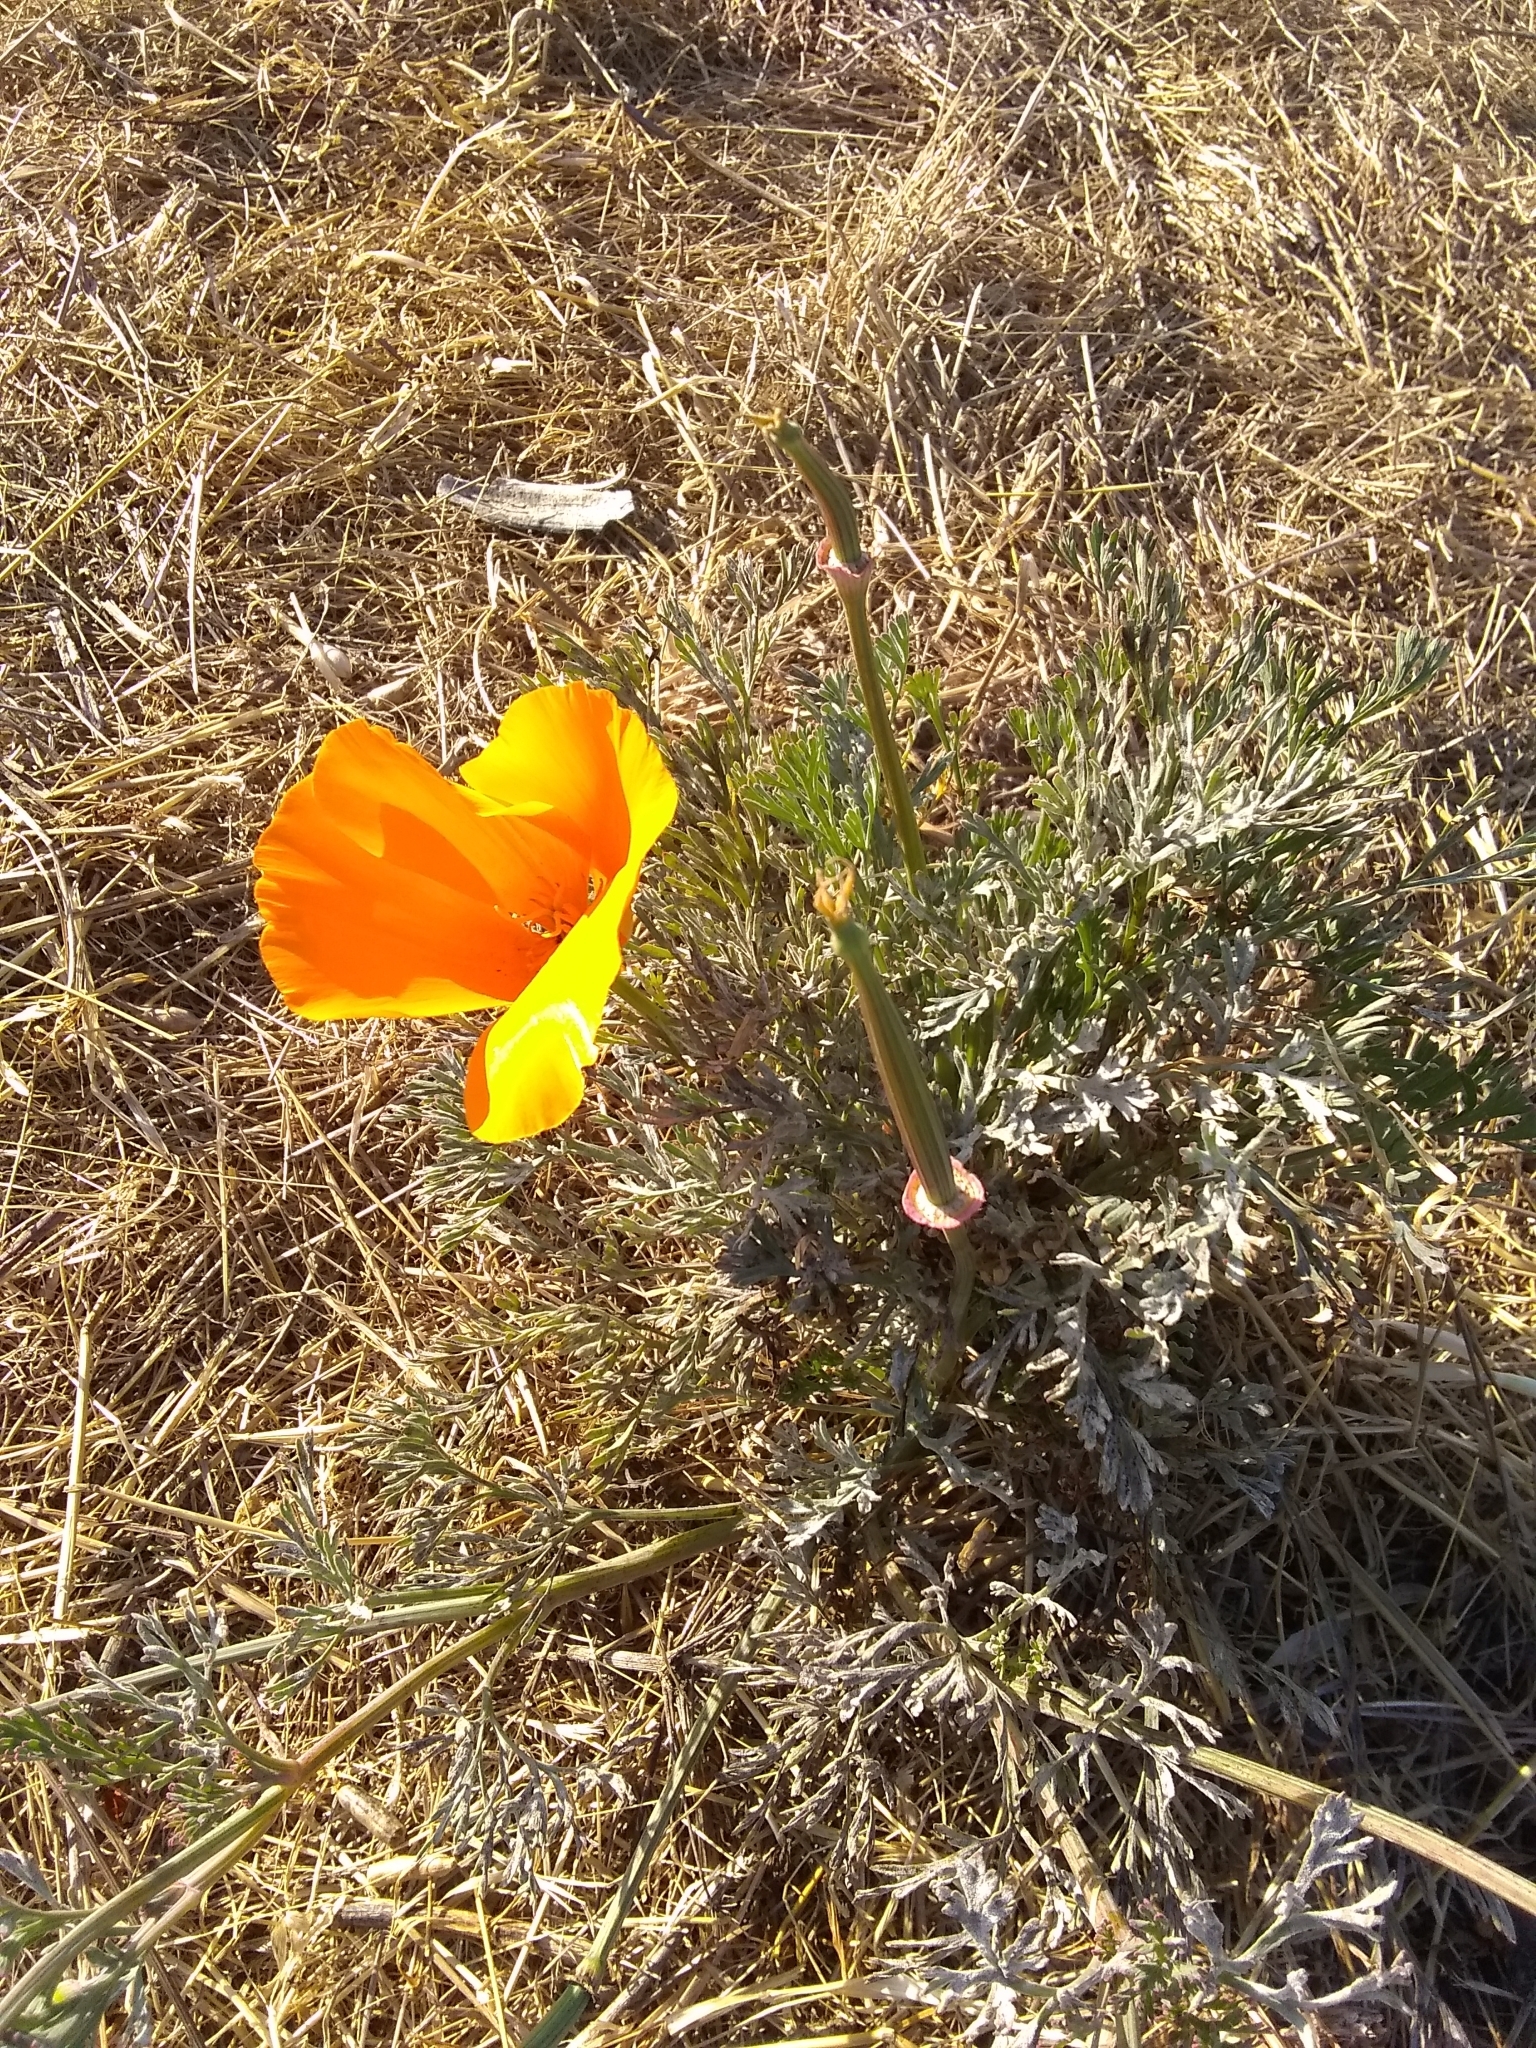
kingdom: Plantae
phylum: Tracheophyta
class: Magnoliopsida
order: Ranunculales
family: Papaveraceae
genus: Eschscholzia
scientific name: Eschscholzia californica
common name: California poppy
